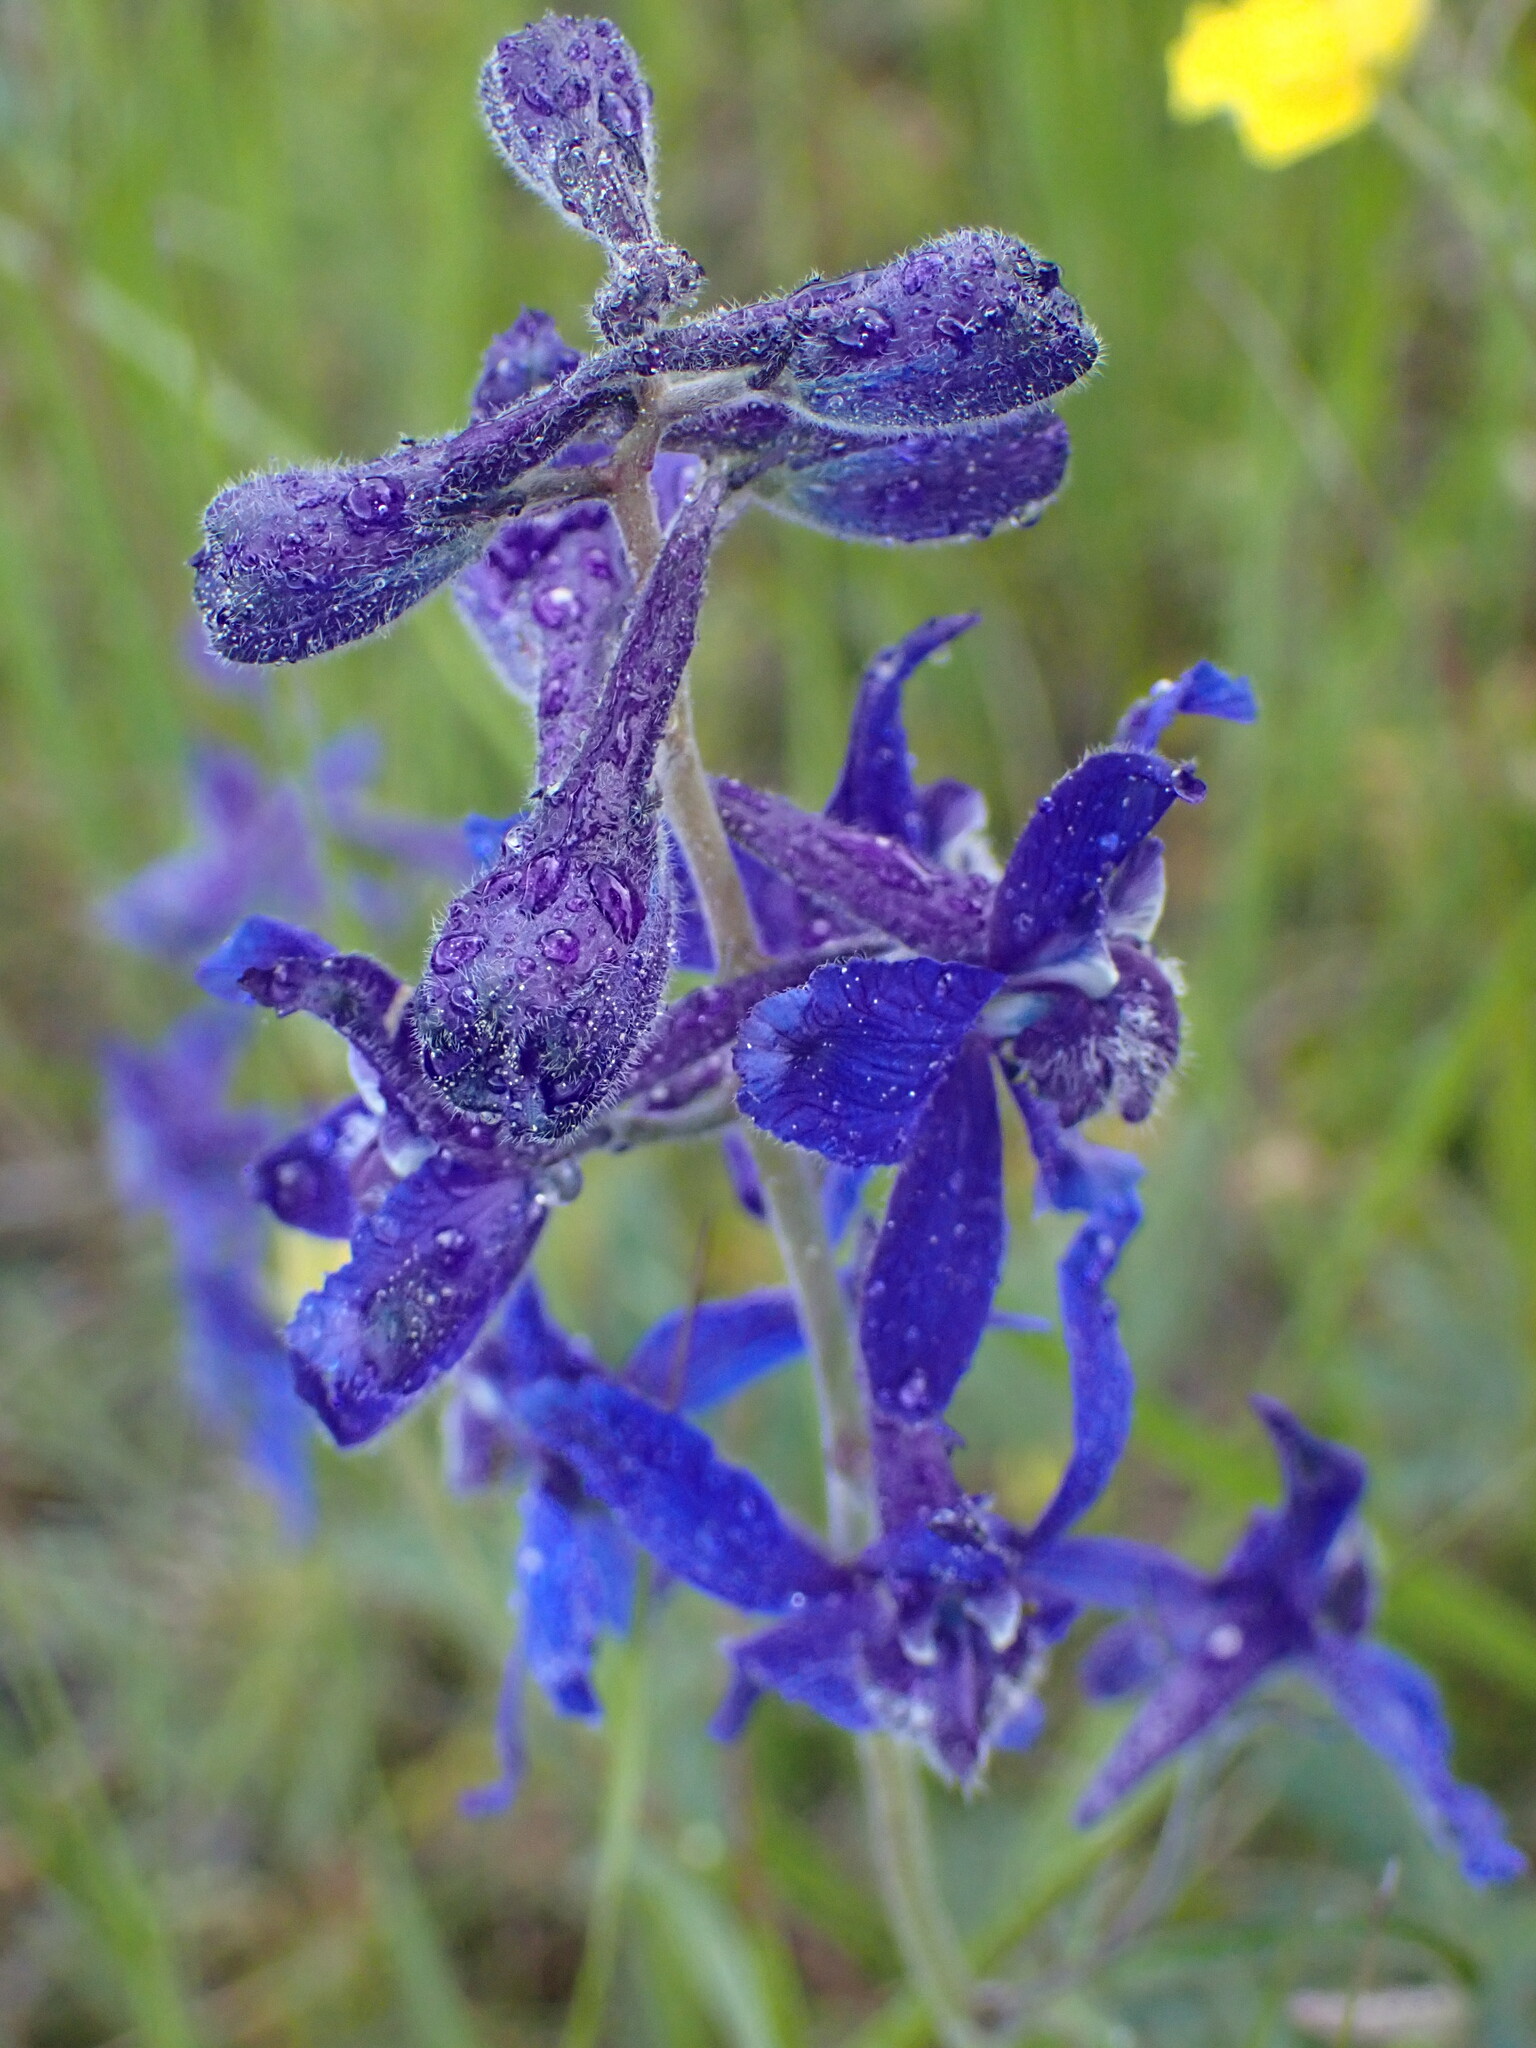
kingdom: Plantae
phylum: Tracheophyta
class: Magnoliopsida
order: Ranunculales
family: Ranunculaceae
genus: Delphinium
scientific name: Delphinium nuttallianum
